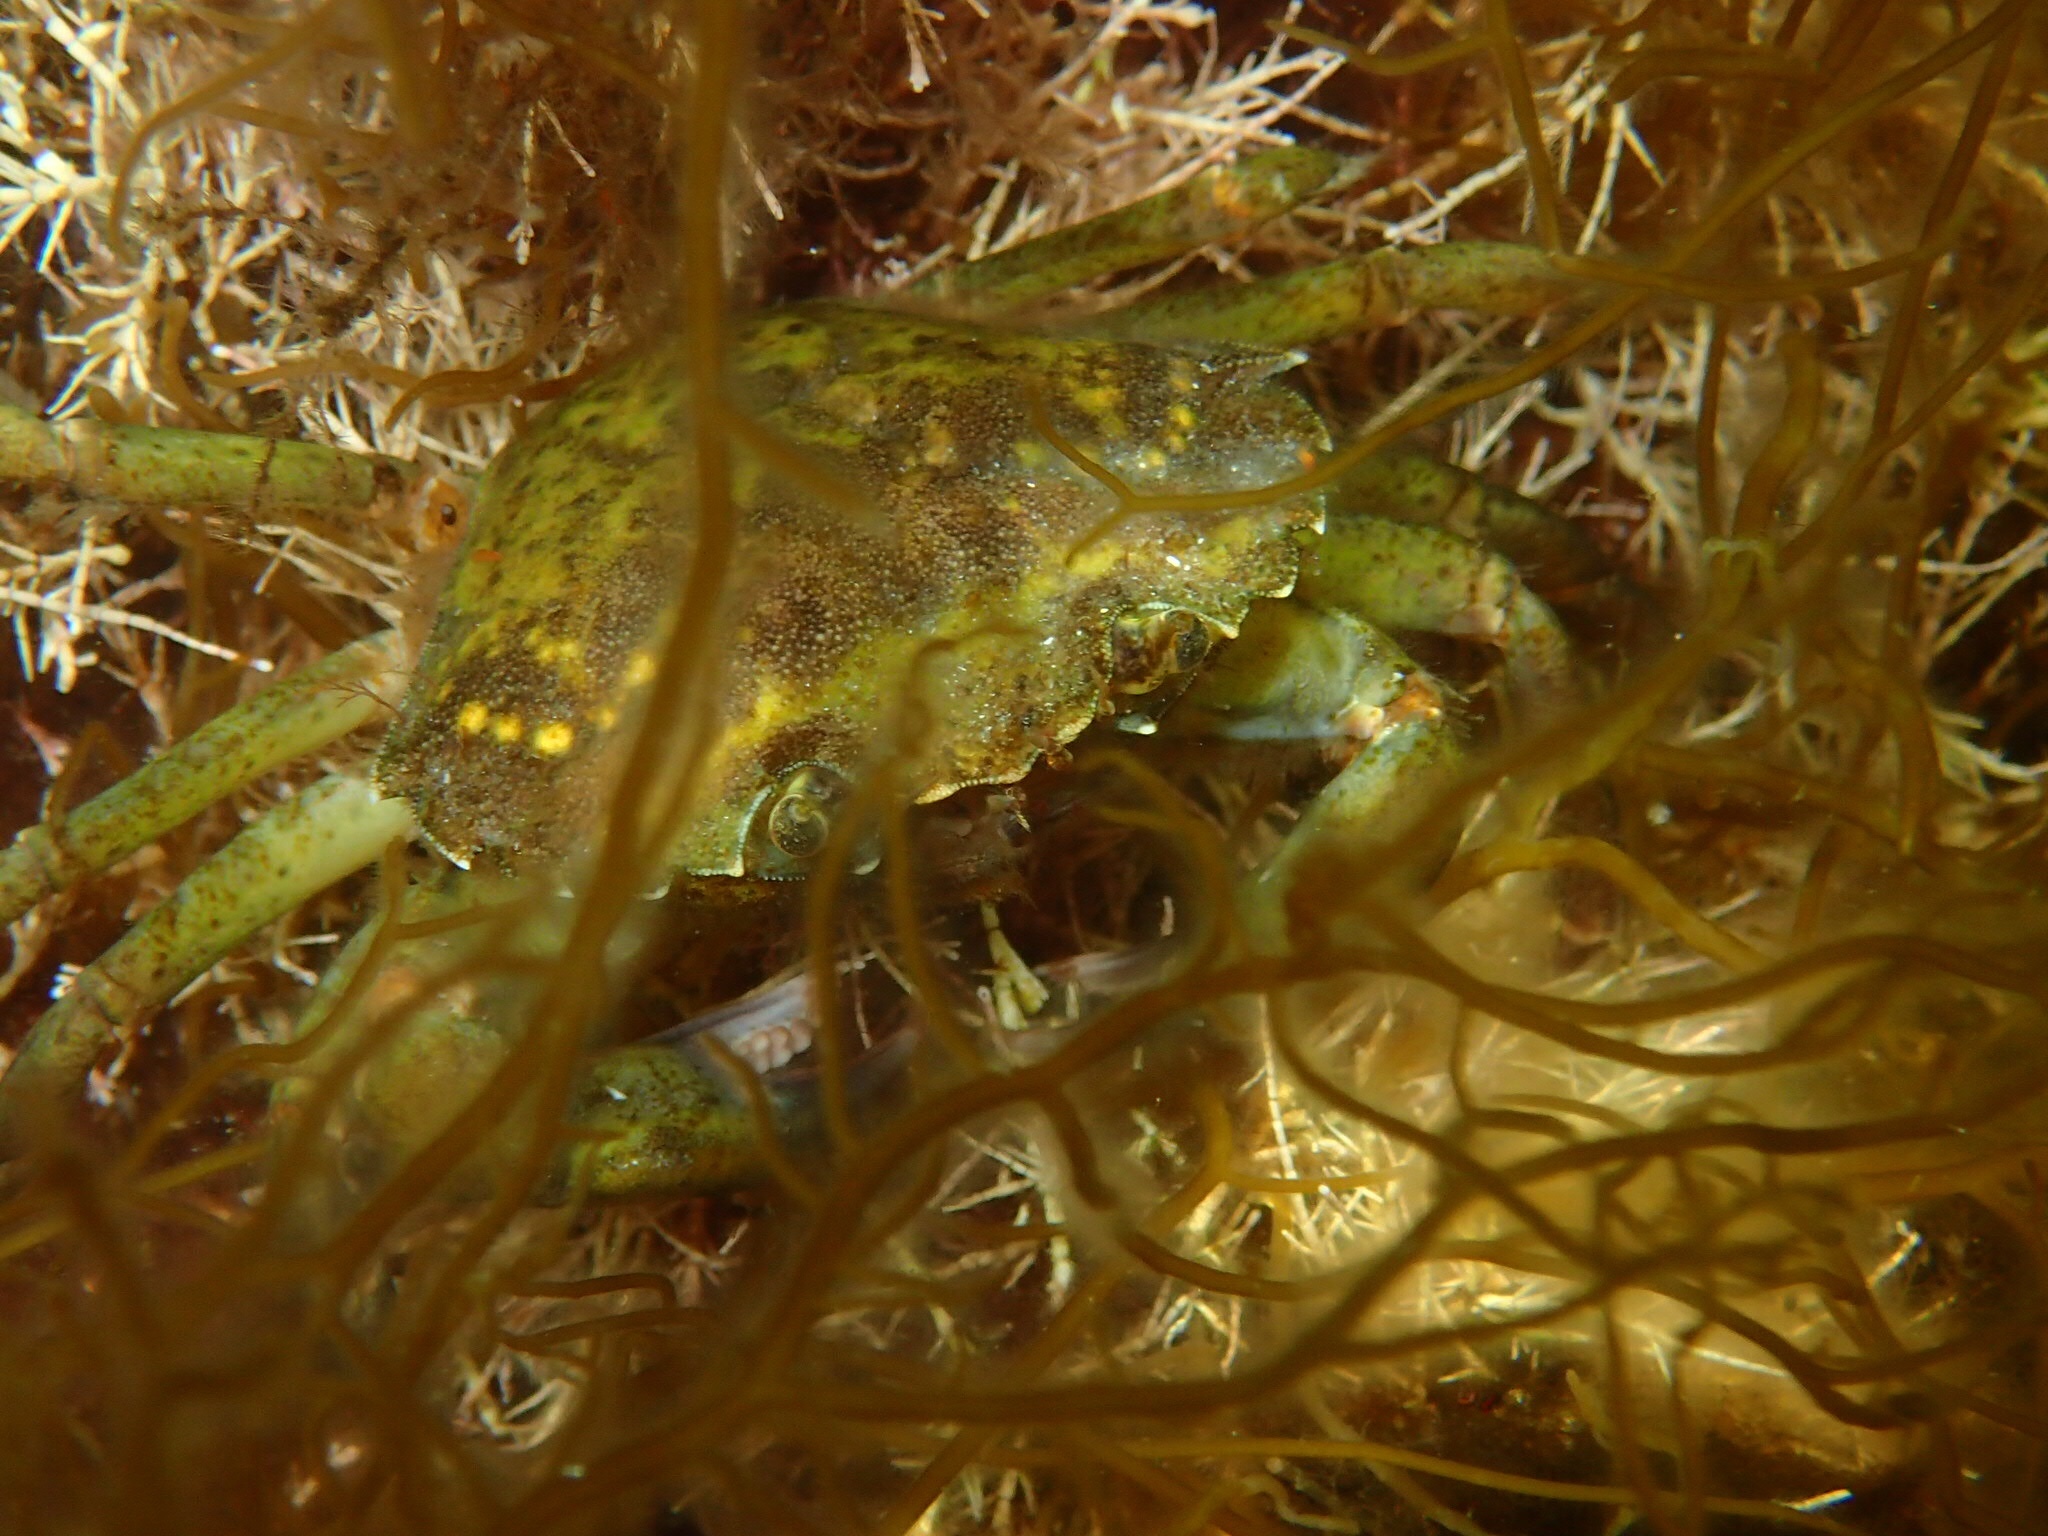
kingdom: Animalia
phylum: Arthropoda
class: Malacostraca
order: Decapoda
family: Carcinidae
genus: Carcinus
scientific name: Carcinus maenas
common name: European green crab
